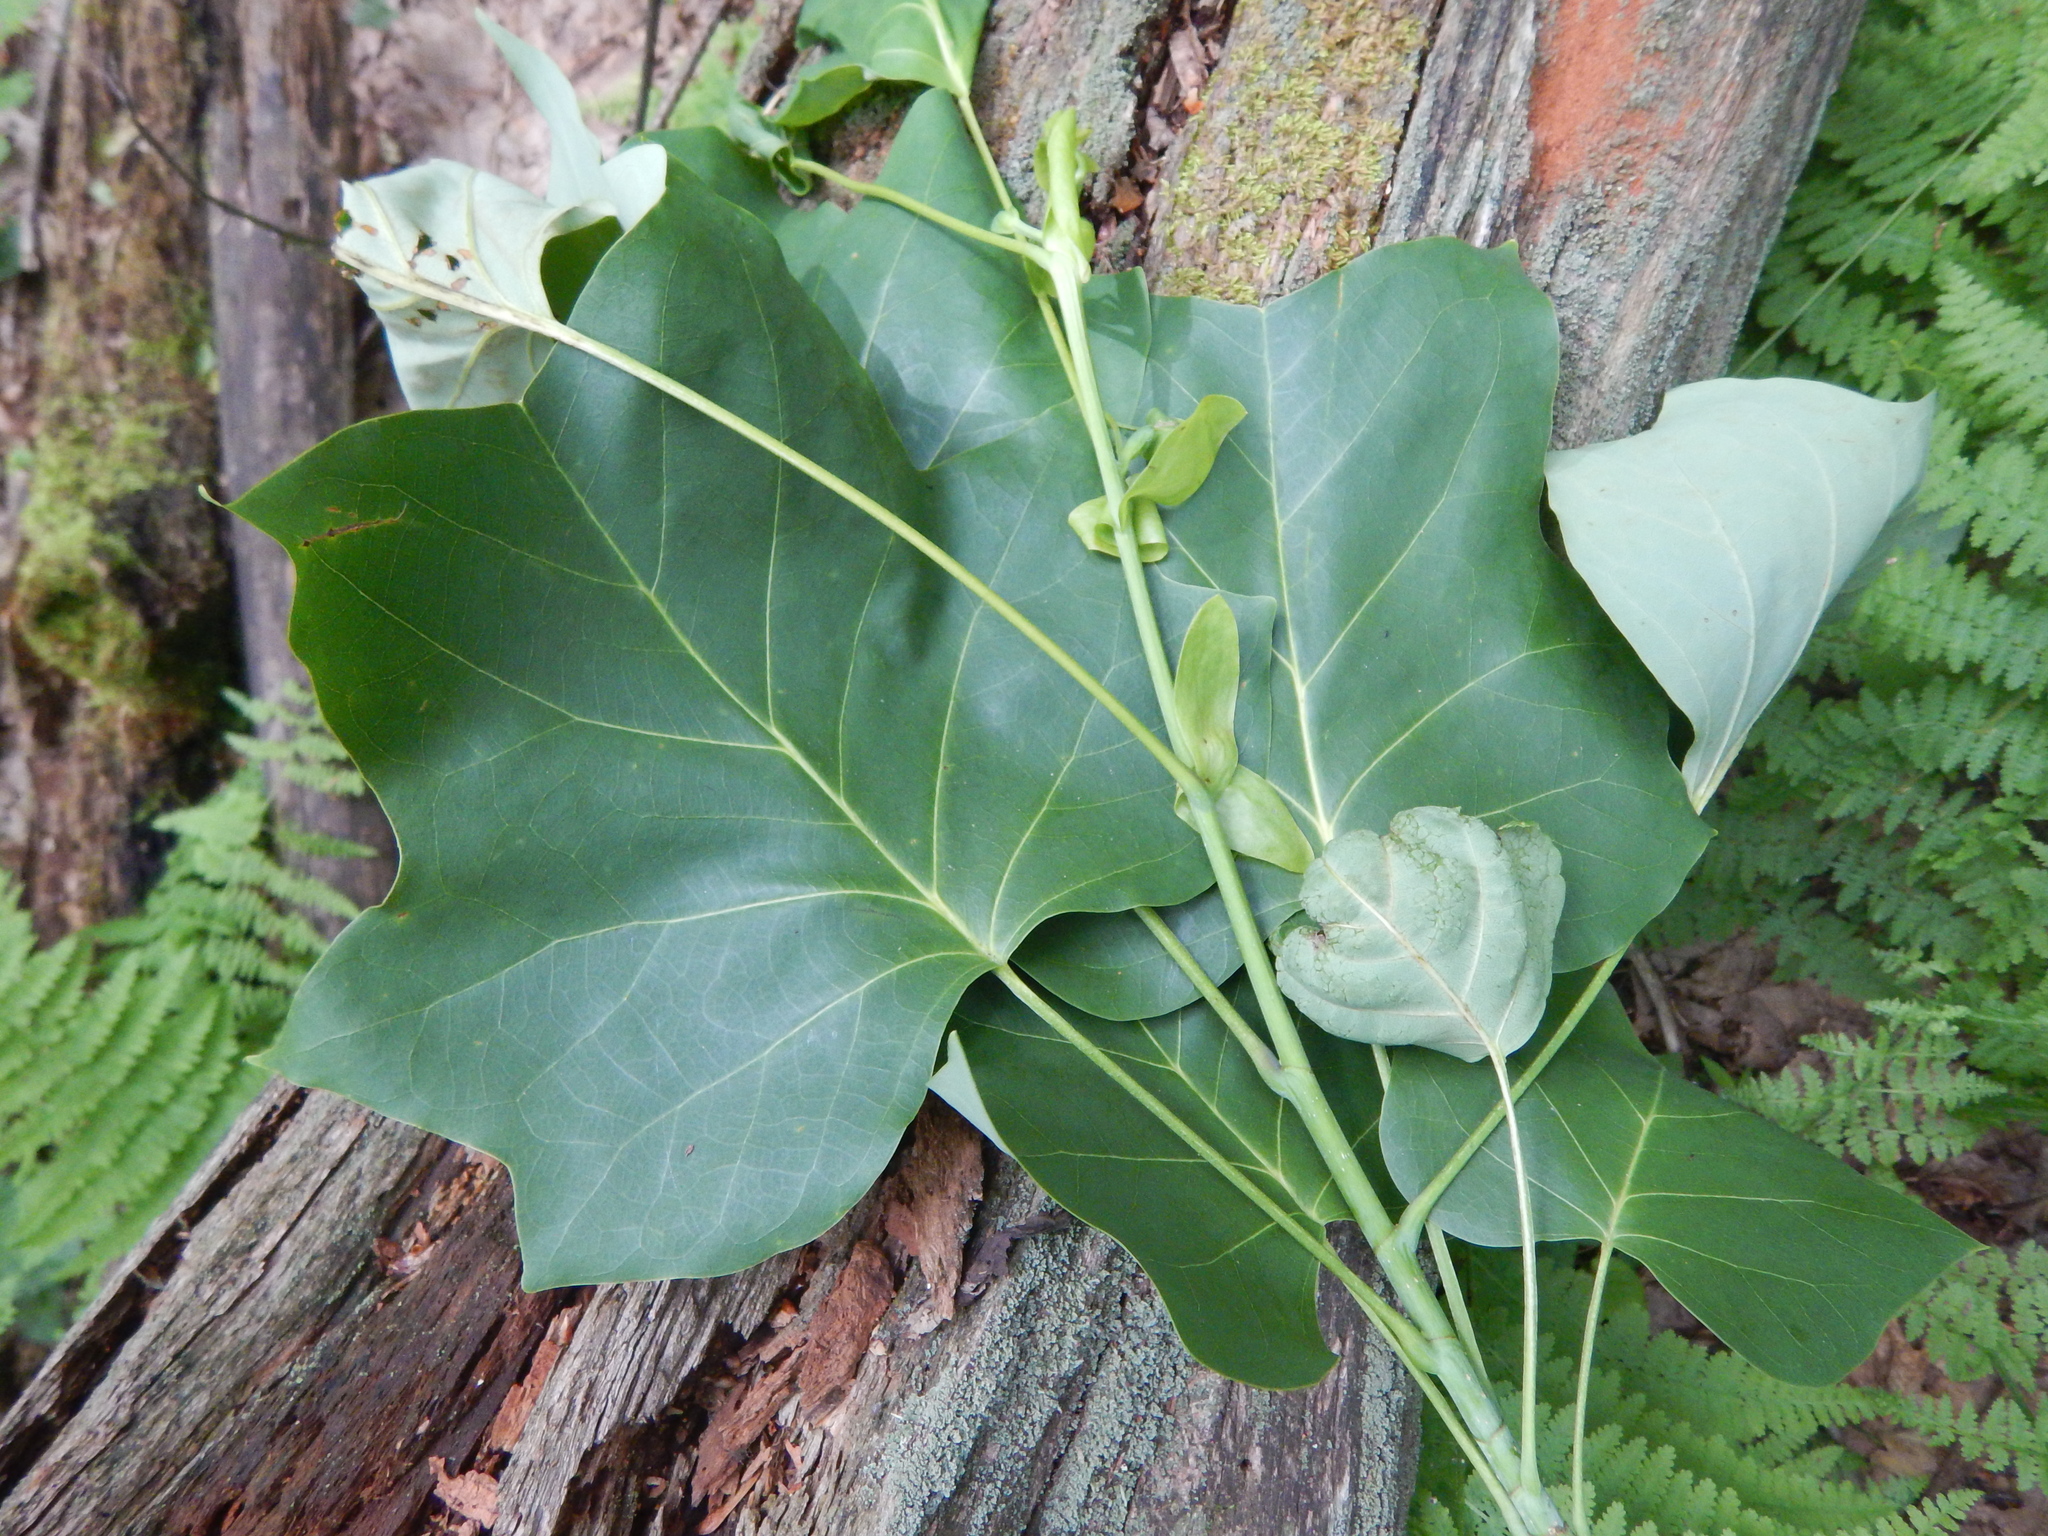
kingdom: Plantae
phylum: Tracheophyta
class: Magnoliopsida
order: Magnoliales
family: Magnoliaceae
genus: Liriodendron
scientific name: Liriodendron tulipifera
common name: Tulip tree
